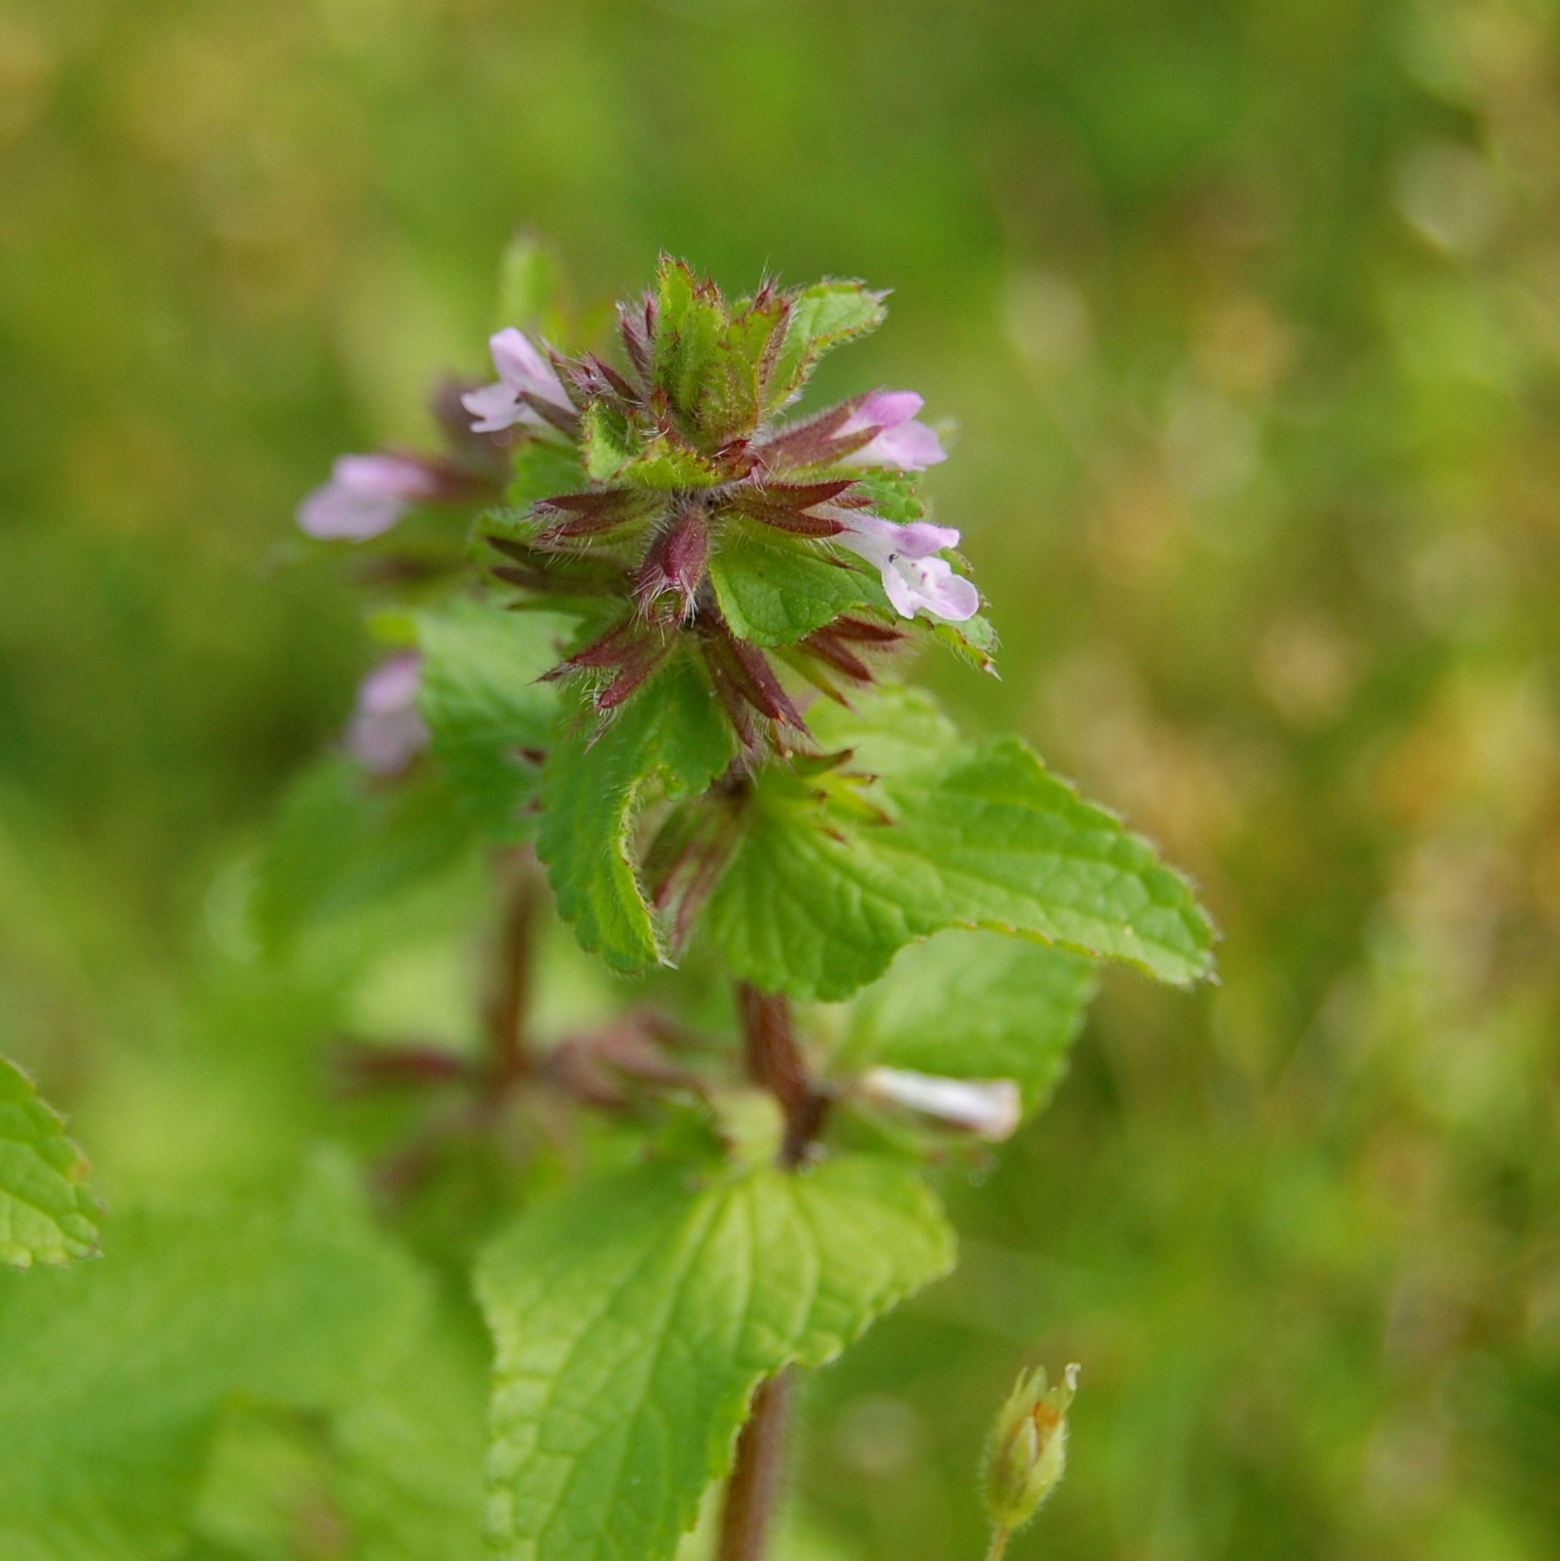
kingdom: Plantae
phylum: Tracheophyta
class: Magnoliopsida
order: Lamiales
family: Lamiaceae
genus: Stachys
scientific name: Stachys arvensis
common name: Field woundwort
